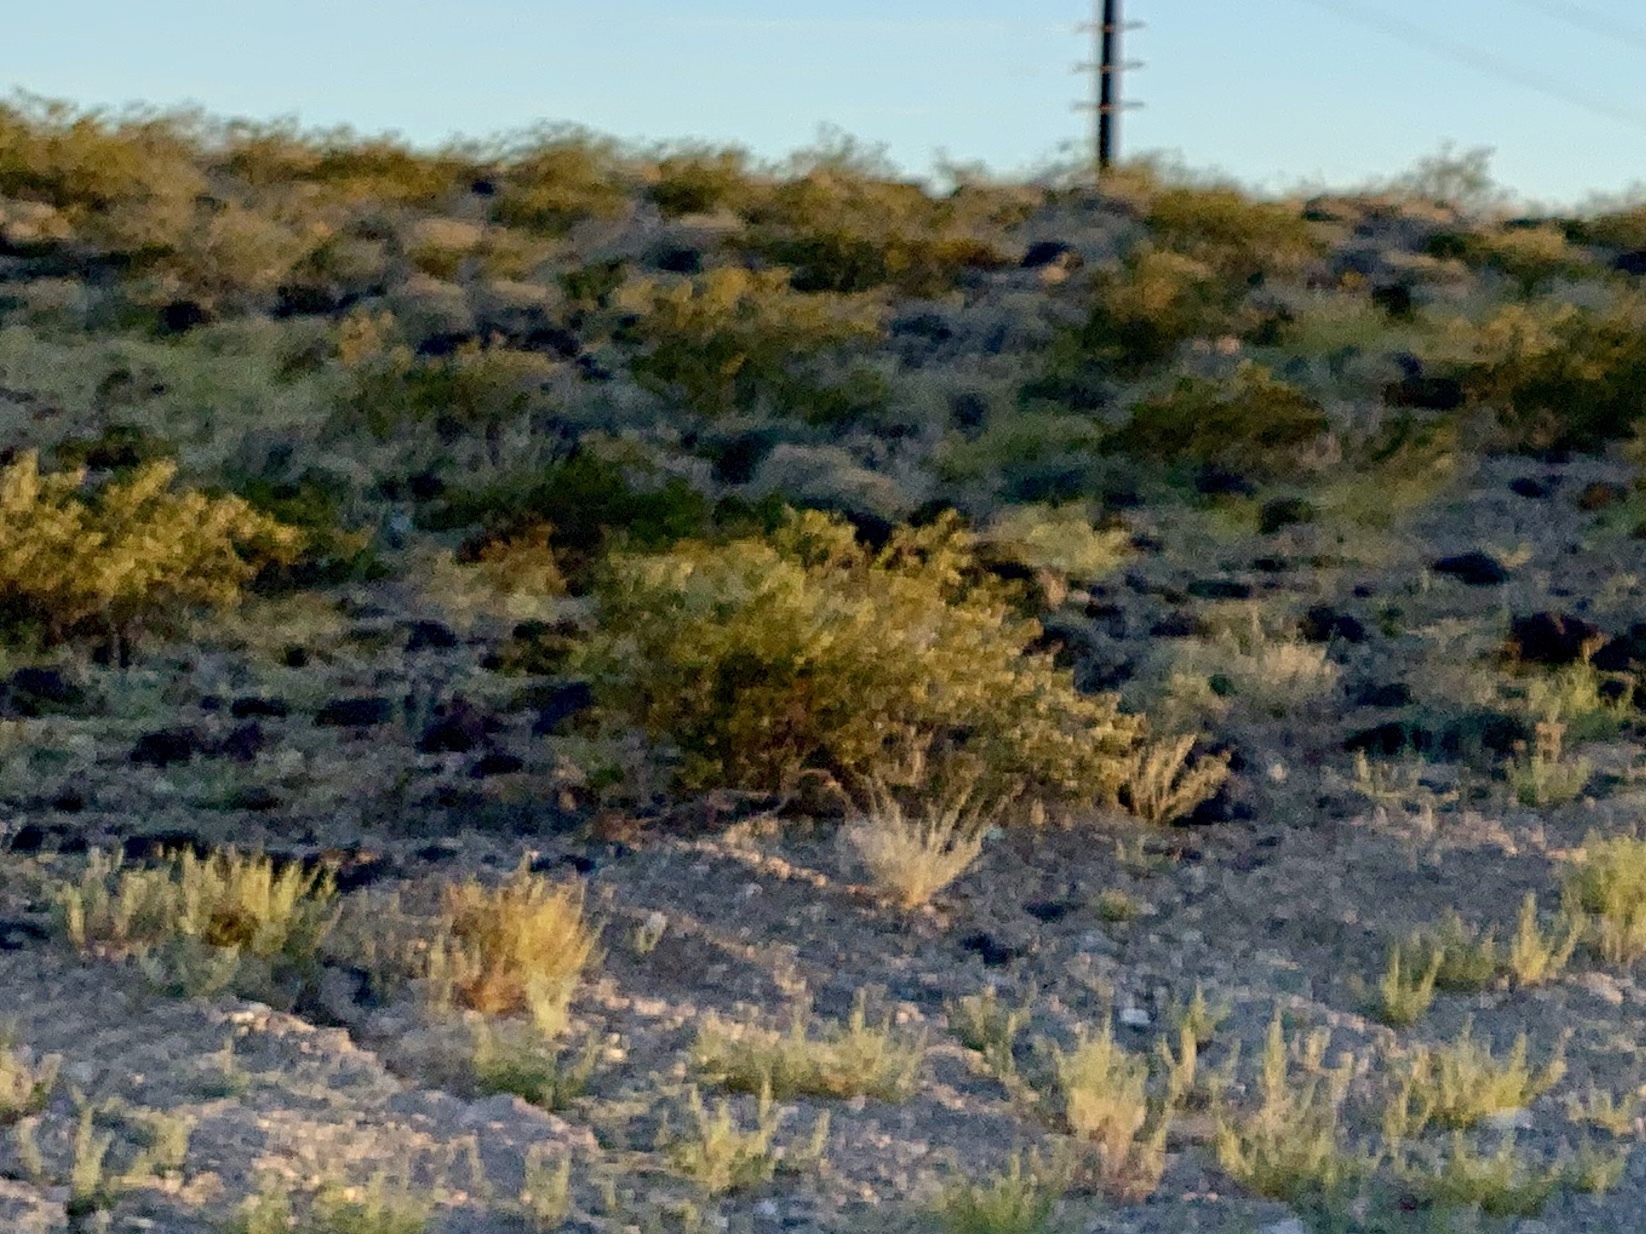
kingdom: Plantae
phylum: Tracheophyta
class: Magnoliopsida
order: Zygophyllales
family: Zygophyllaceae
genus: Larrea
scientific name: Larrea tridentata
